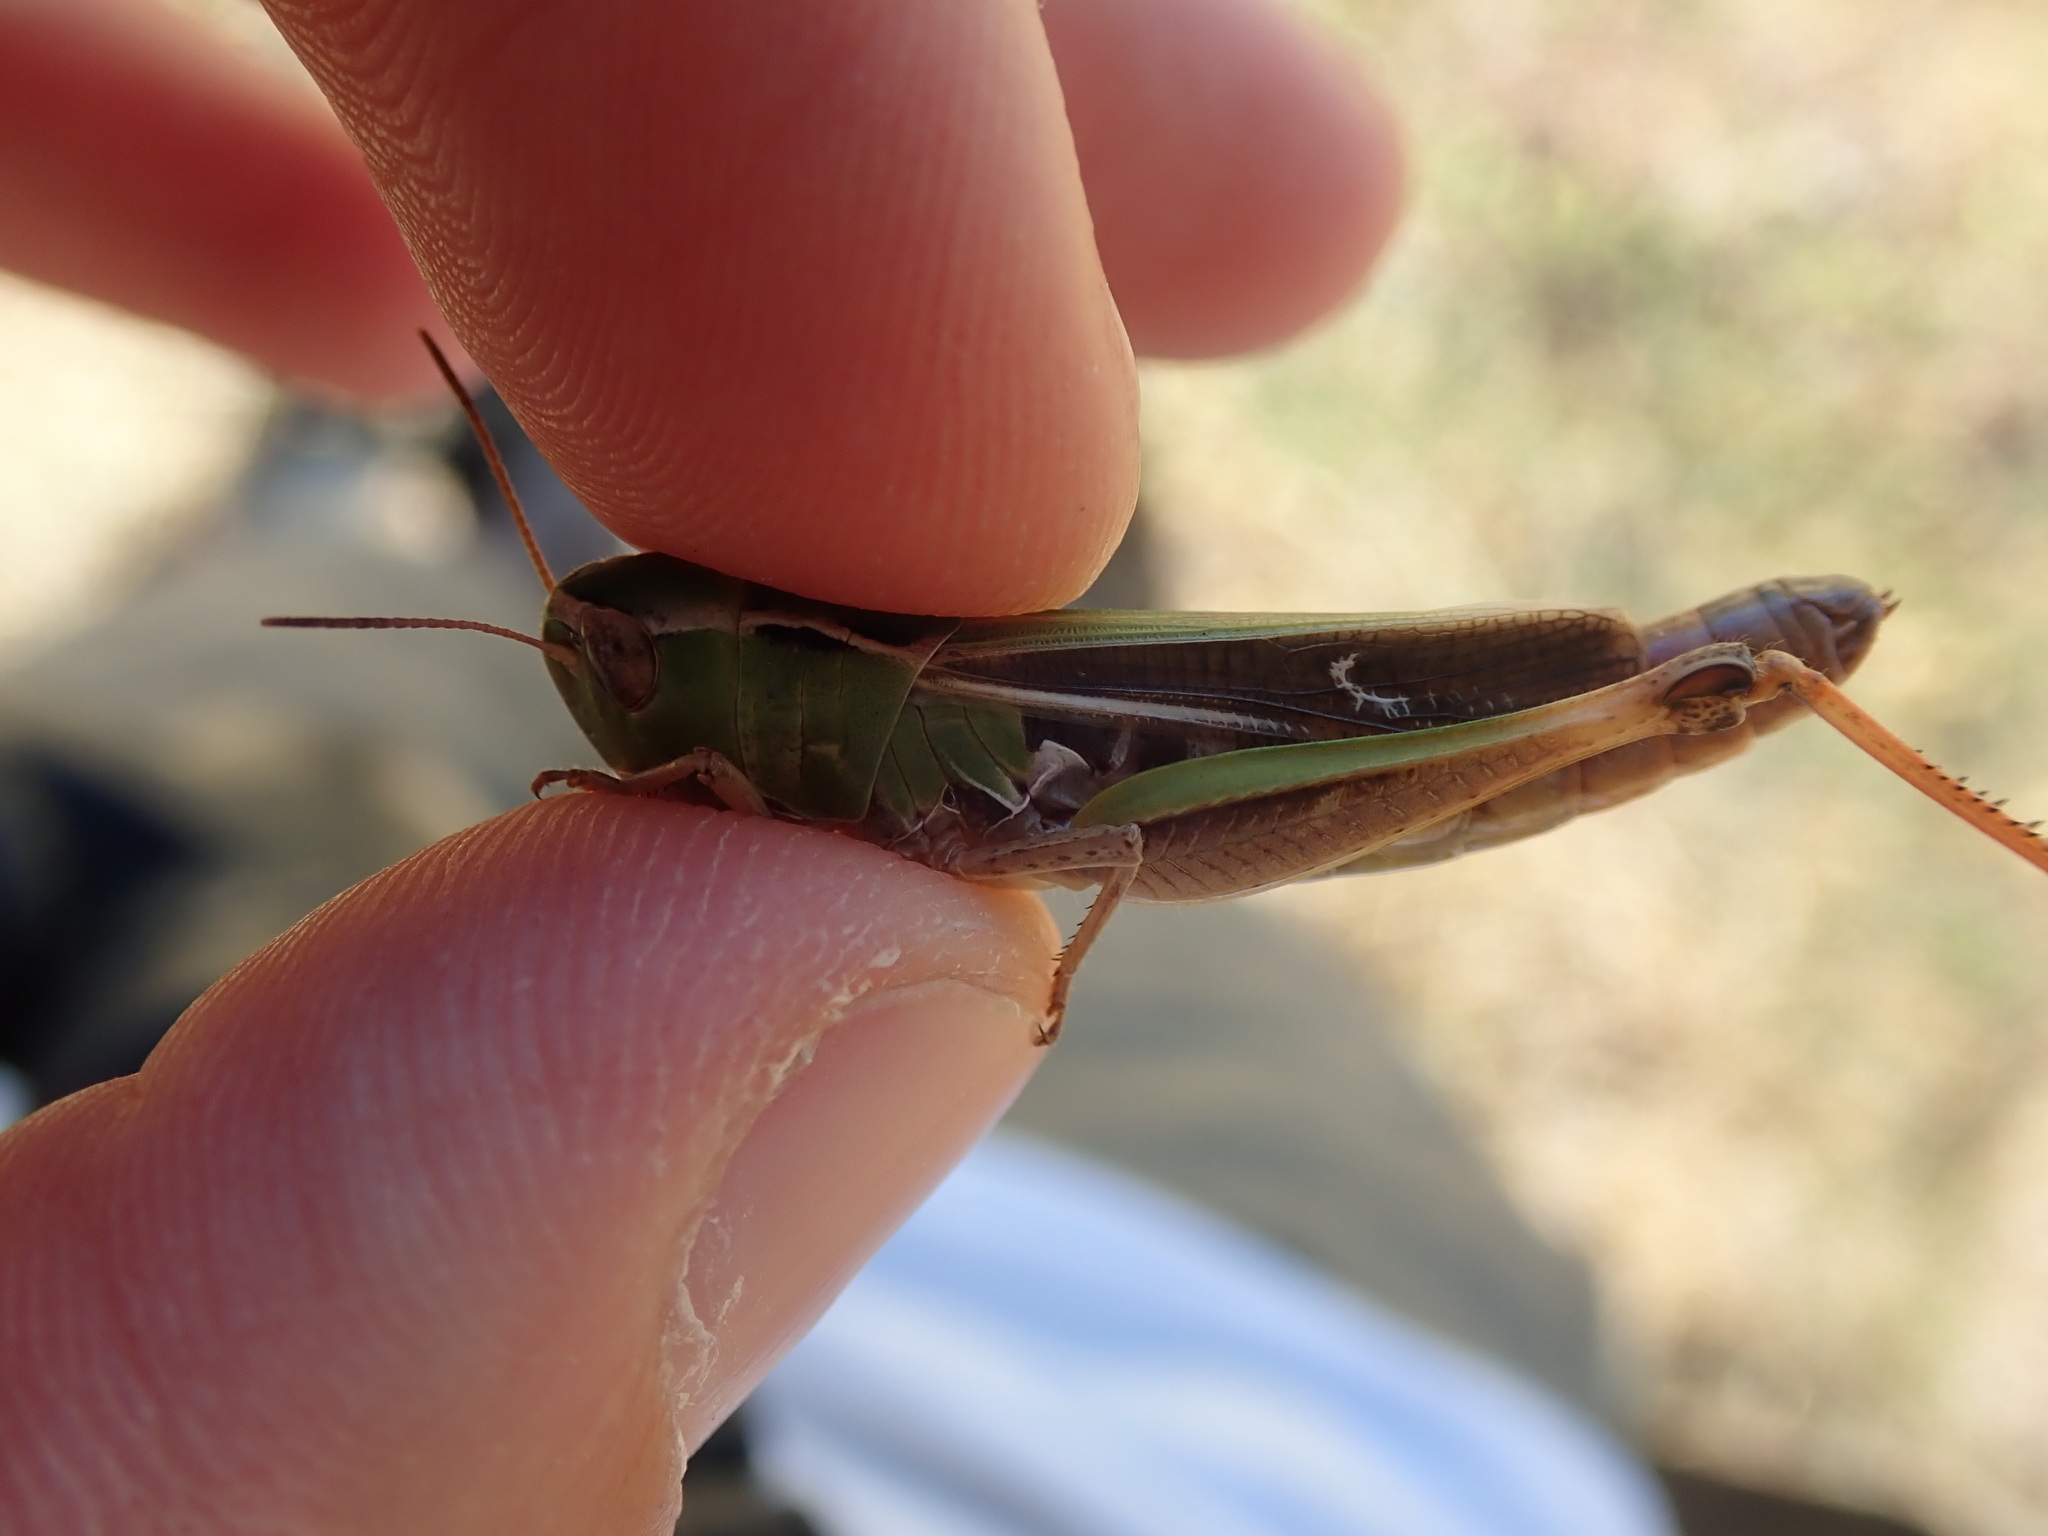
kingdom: Animalia
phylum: Arthropoda
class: Insecta
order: Orthoptera
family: Acrididae
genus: Stenobothrus
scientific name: Stenobothrus lineatus
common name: Stripe-winged grasshopper
